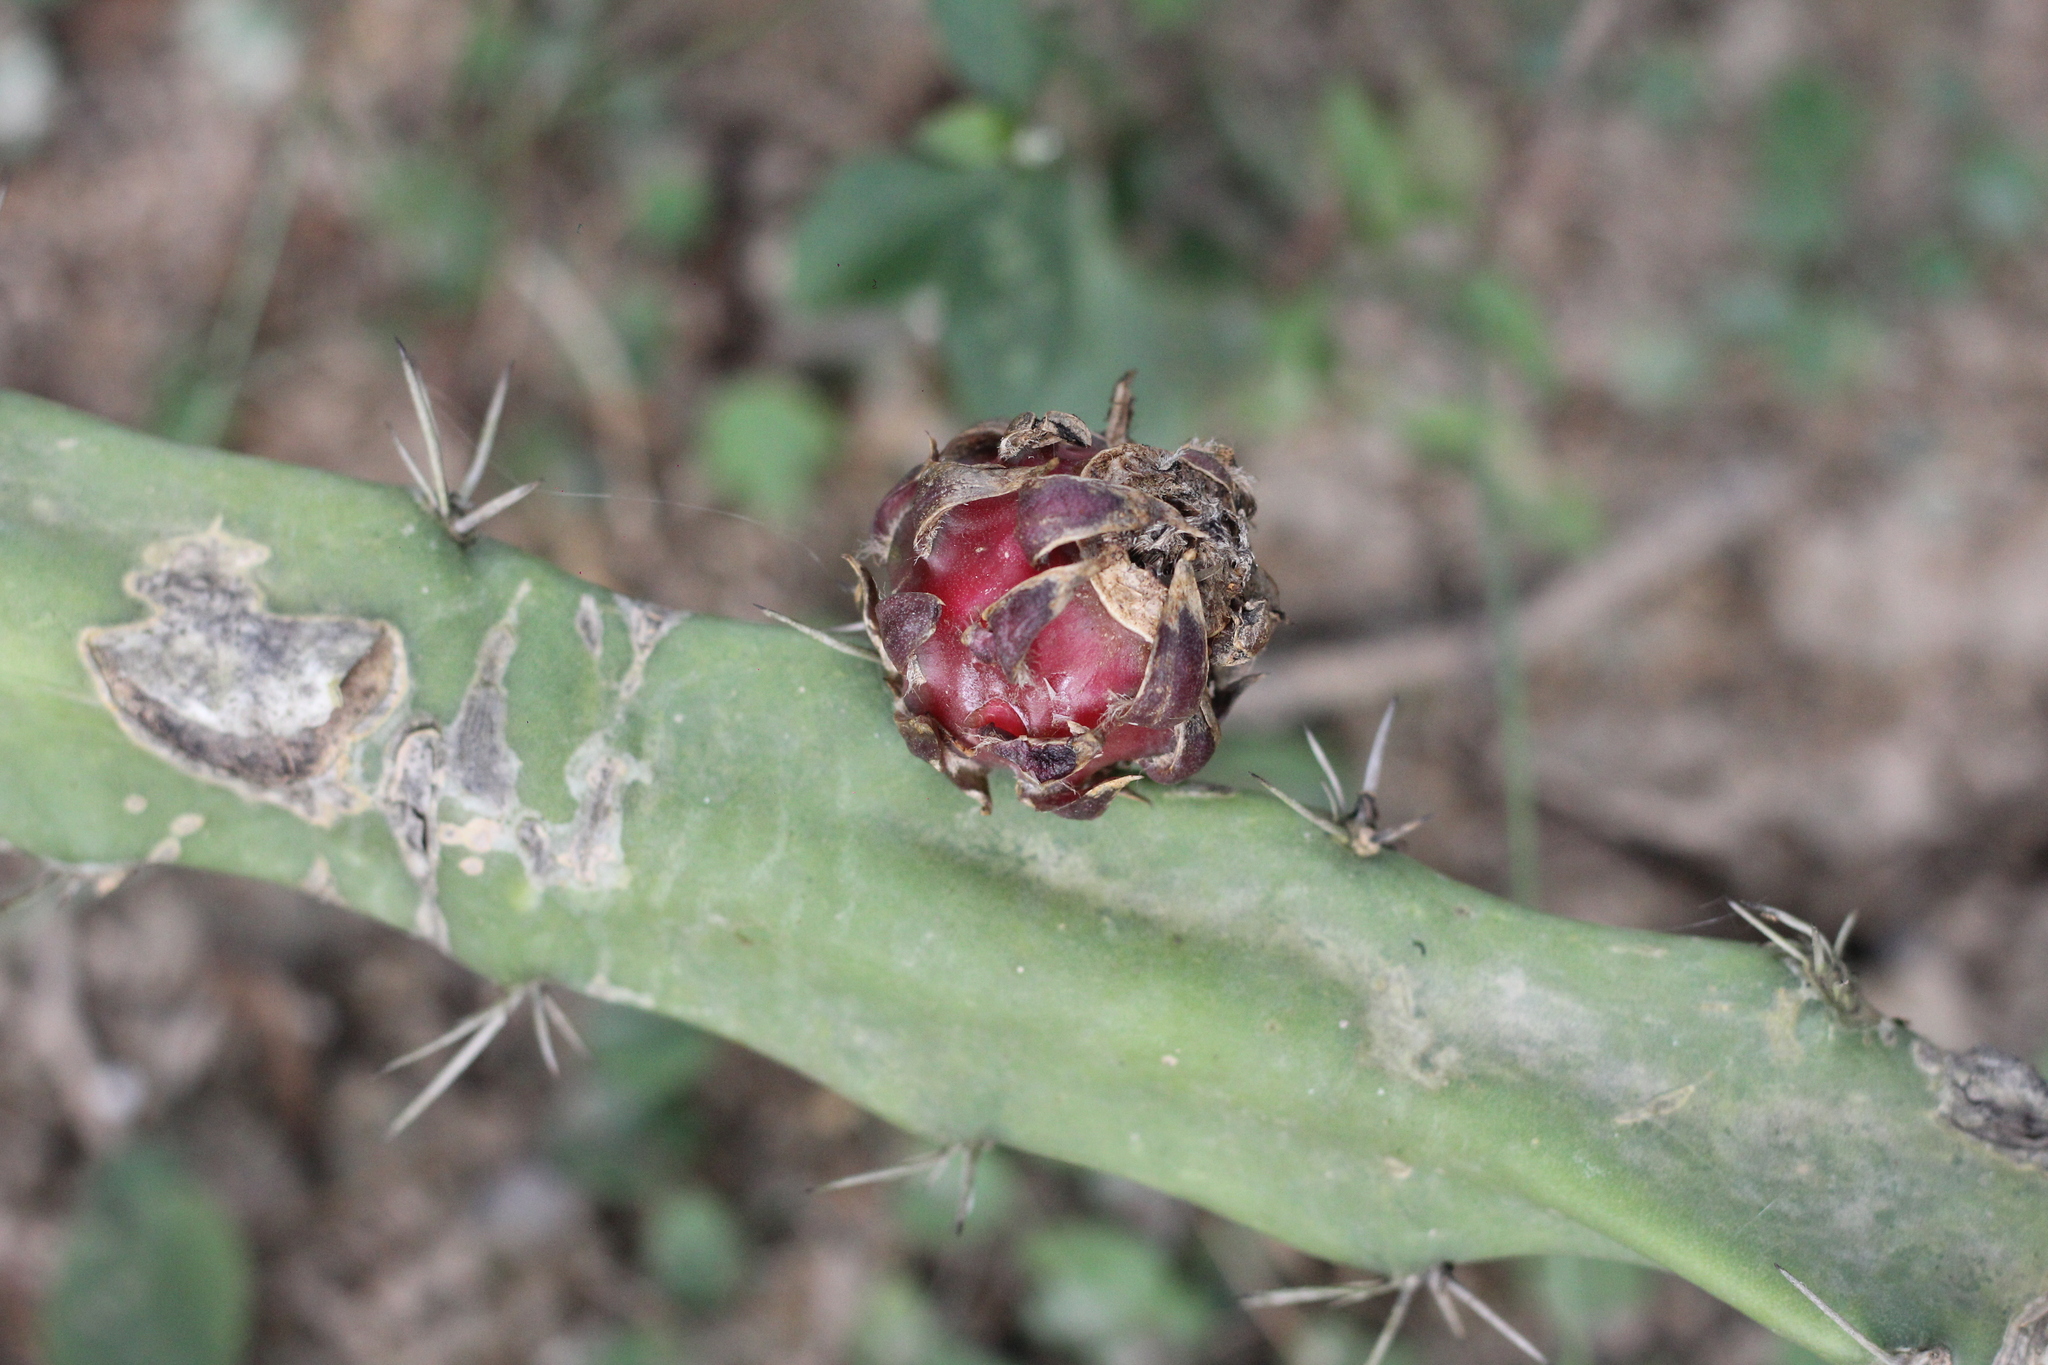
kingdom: Plantae
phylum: Tracheophyta
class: Magnoliopsida
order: Caryophyllales
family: Cactaceae
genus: Harrisia
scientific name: Harrisia martinii
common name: Moon cactus
